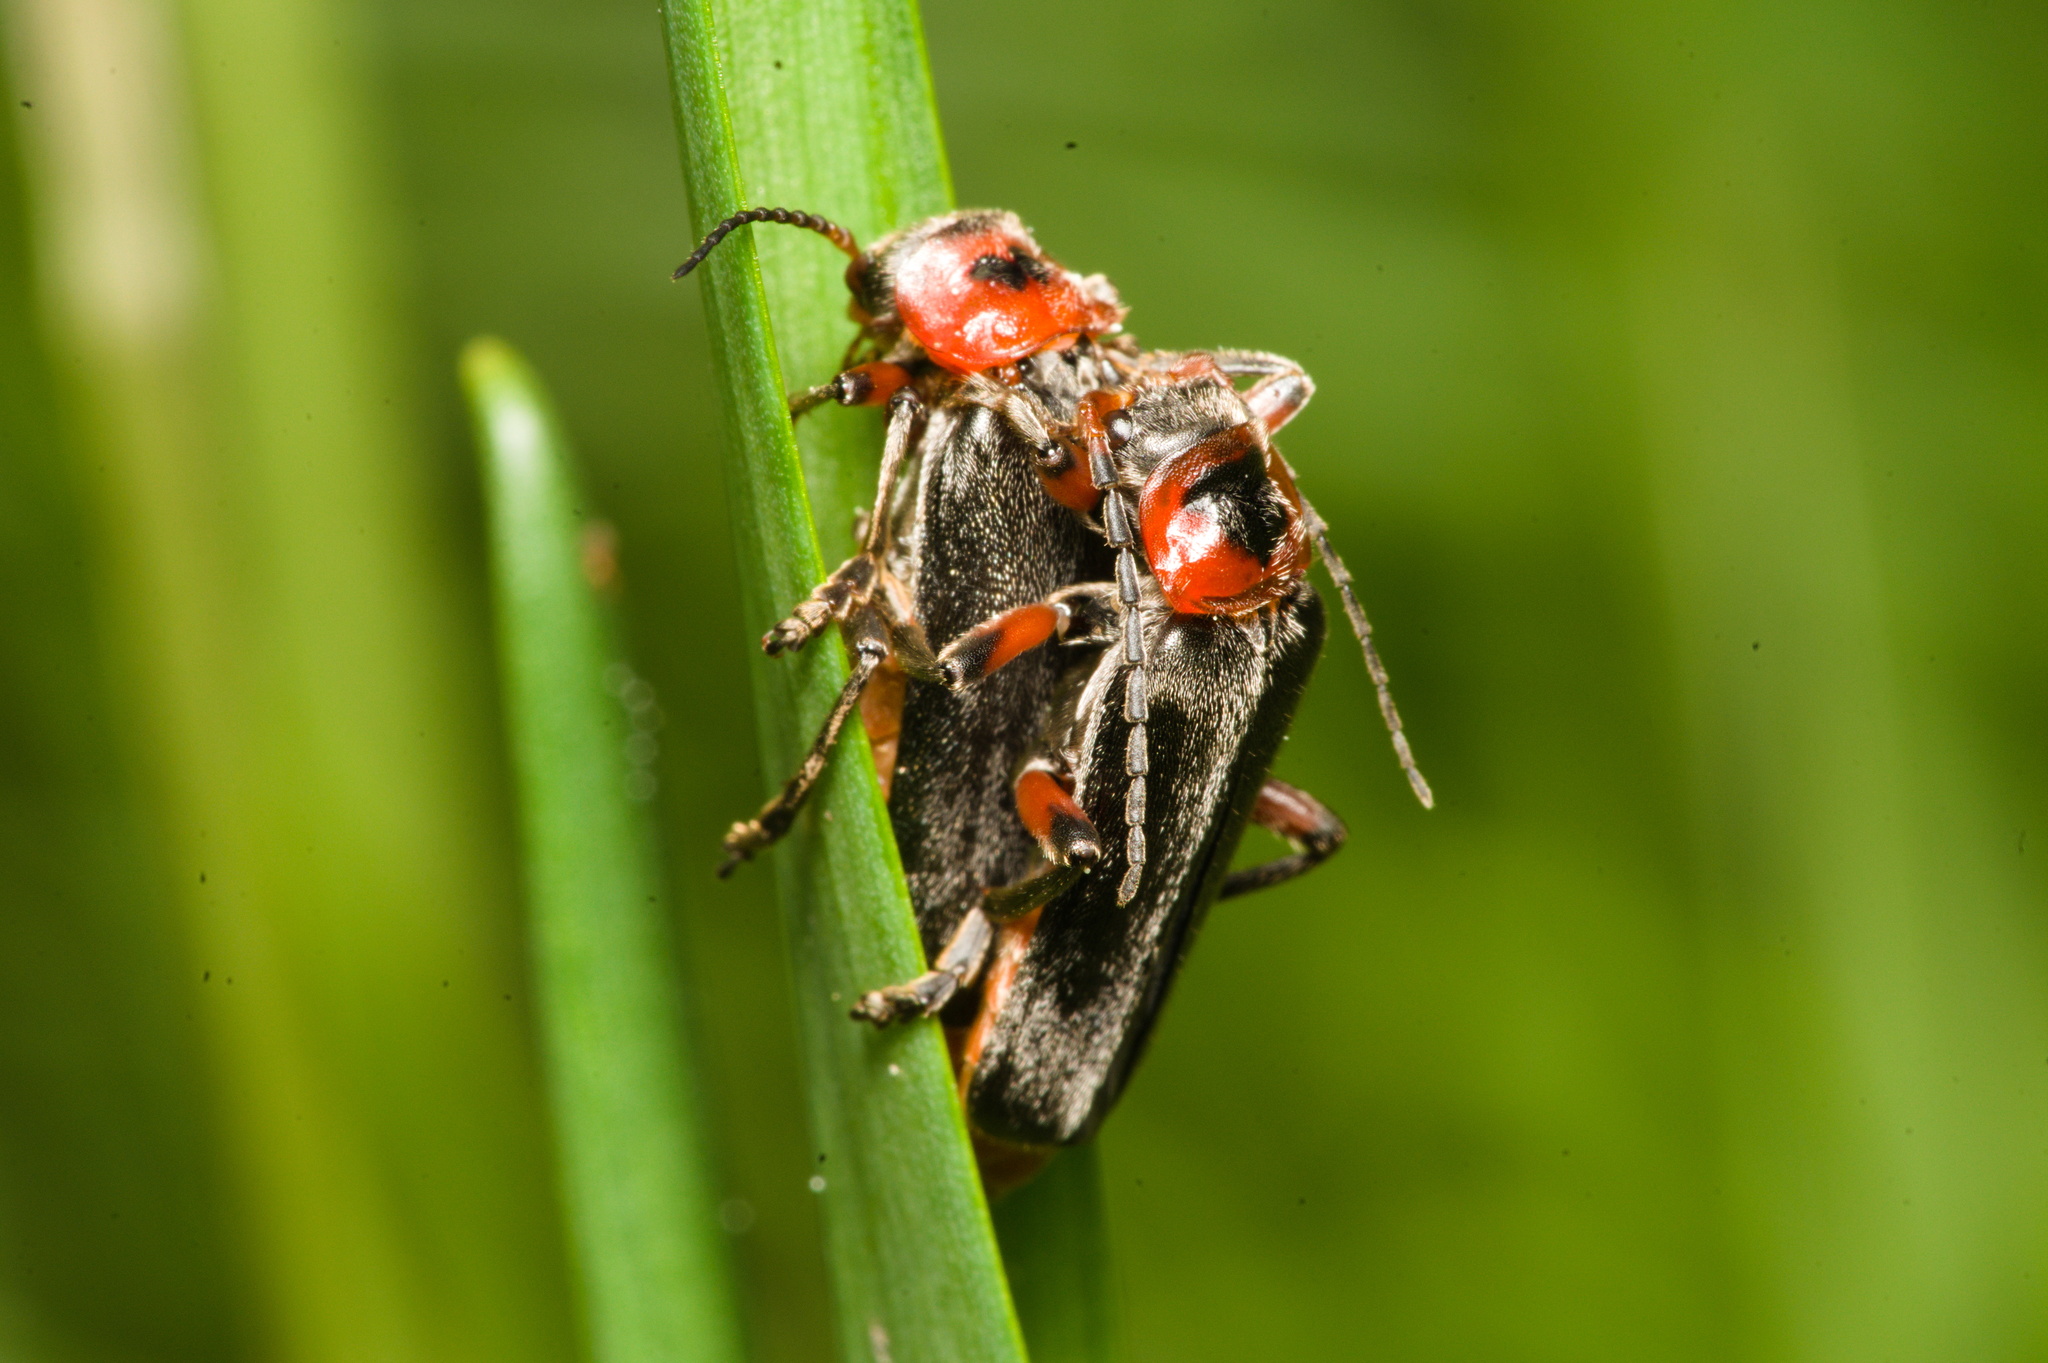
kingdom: Animalia
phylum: Arthropoda
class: Insecta
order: Coleoptera
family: Cantharidae
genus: Cantharis
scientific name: Cantharis rustica
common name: Soldier beetle
